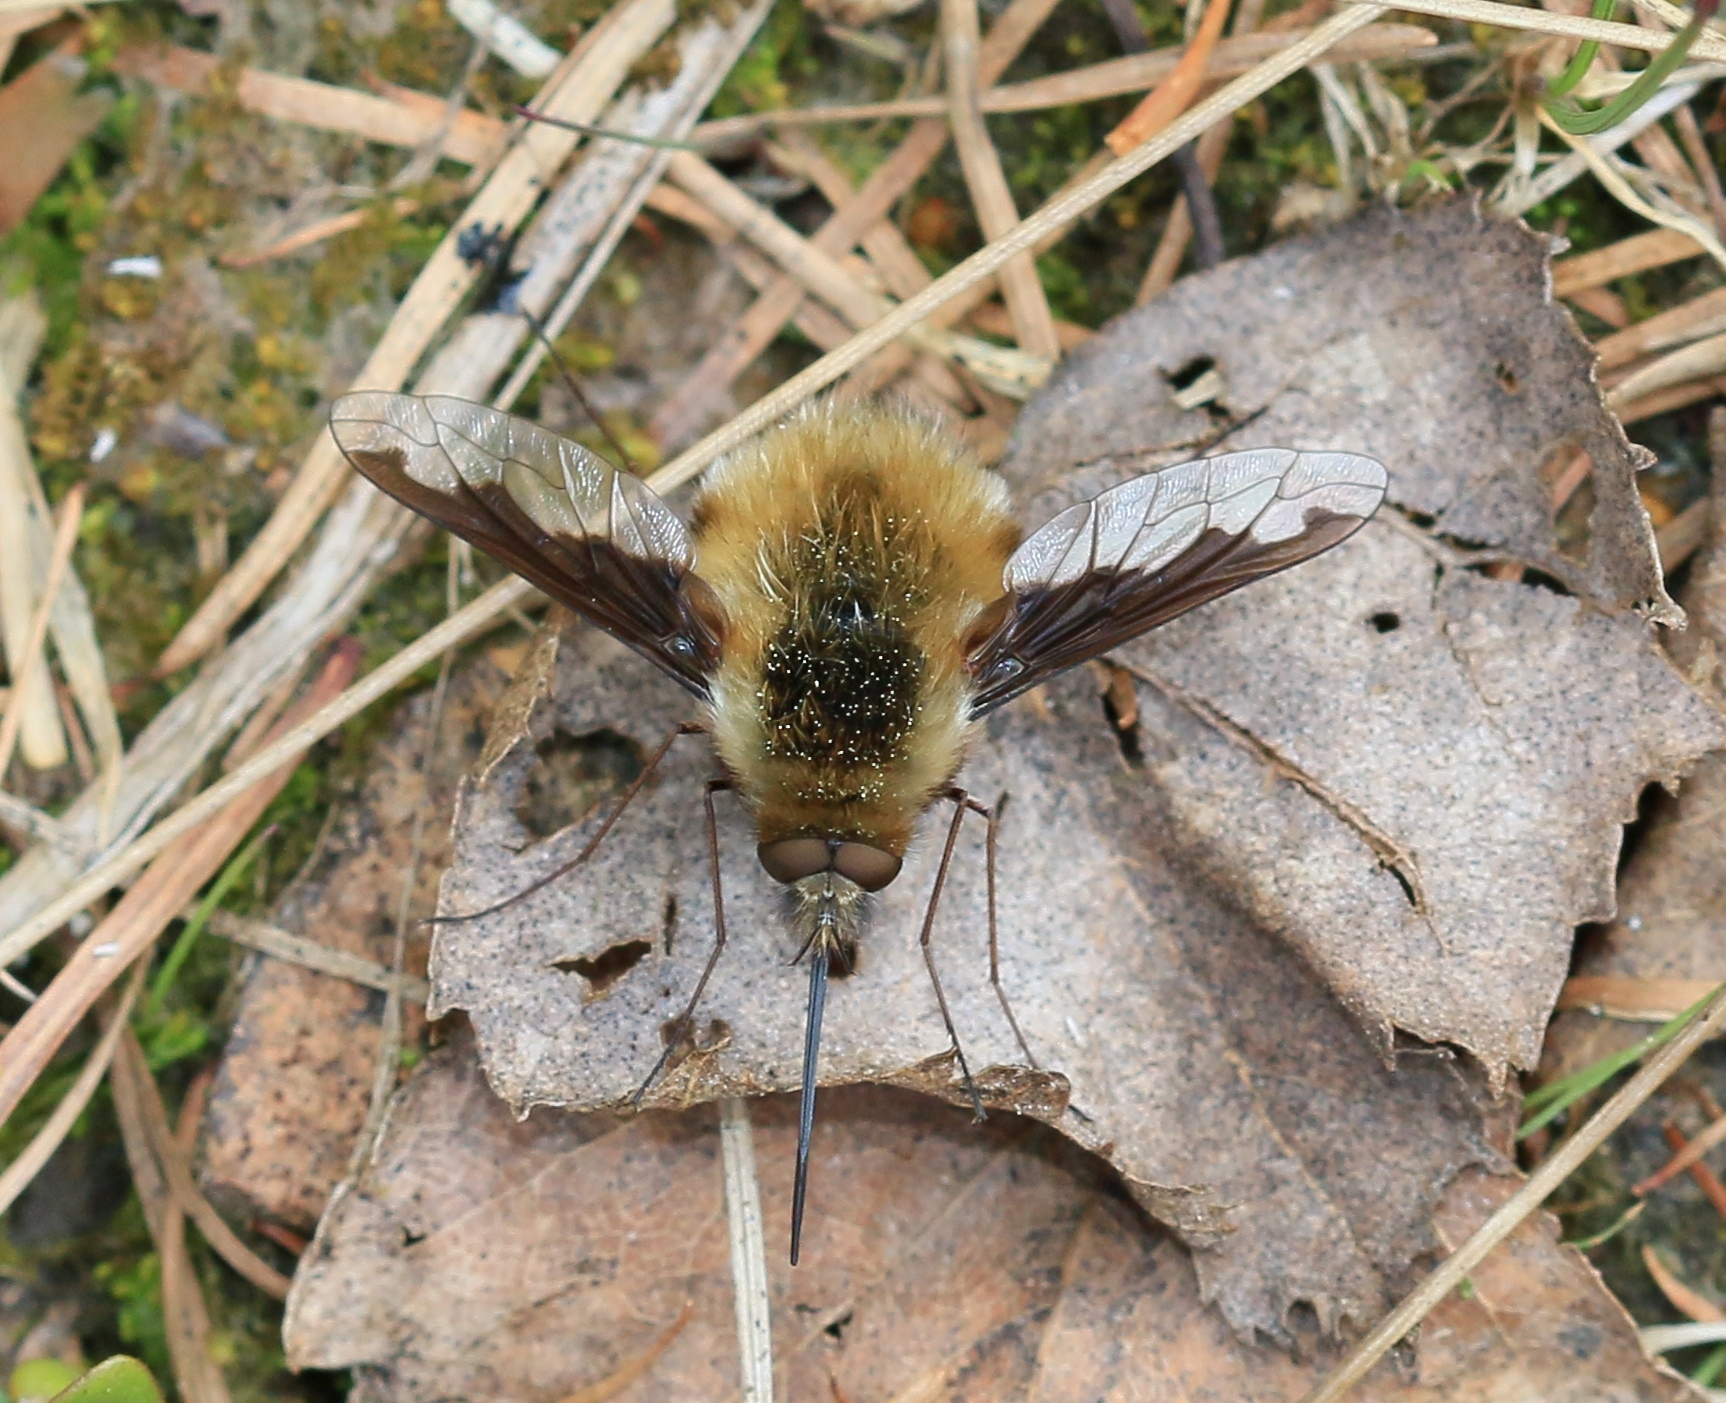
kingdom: Animalia
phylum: Arthropoda
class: Insecta
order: Diptera
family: Bombyliidae
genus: Bombylius
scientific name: Bombylius major
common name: Bee fly
